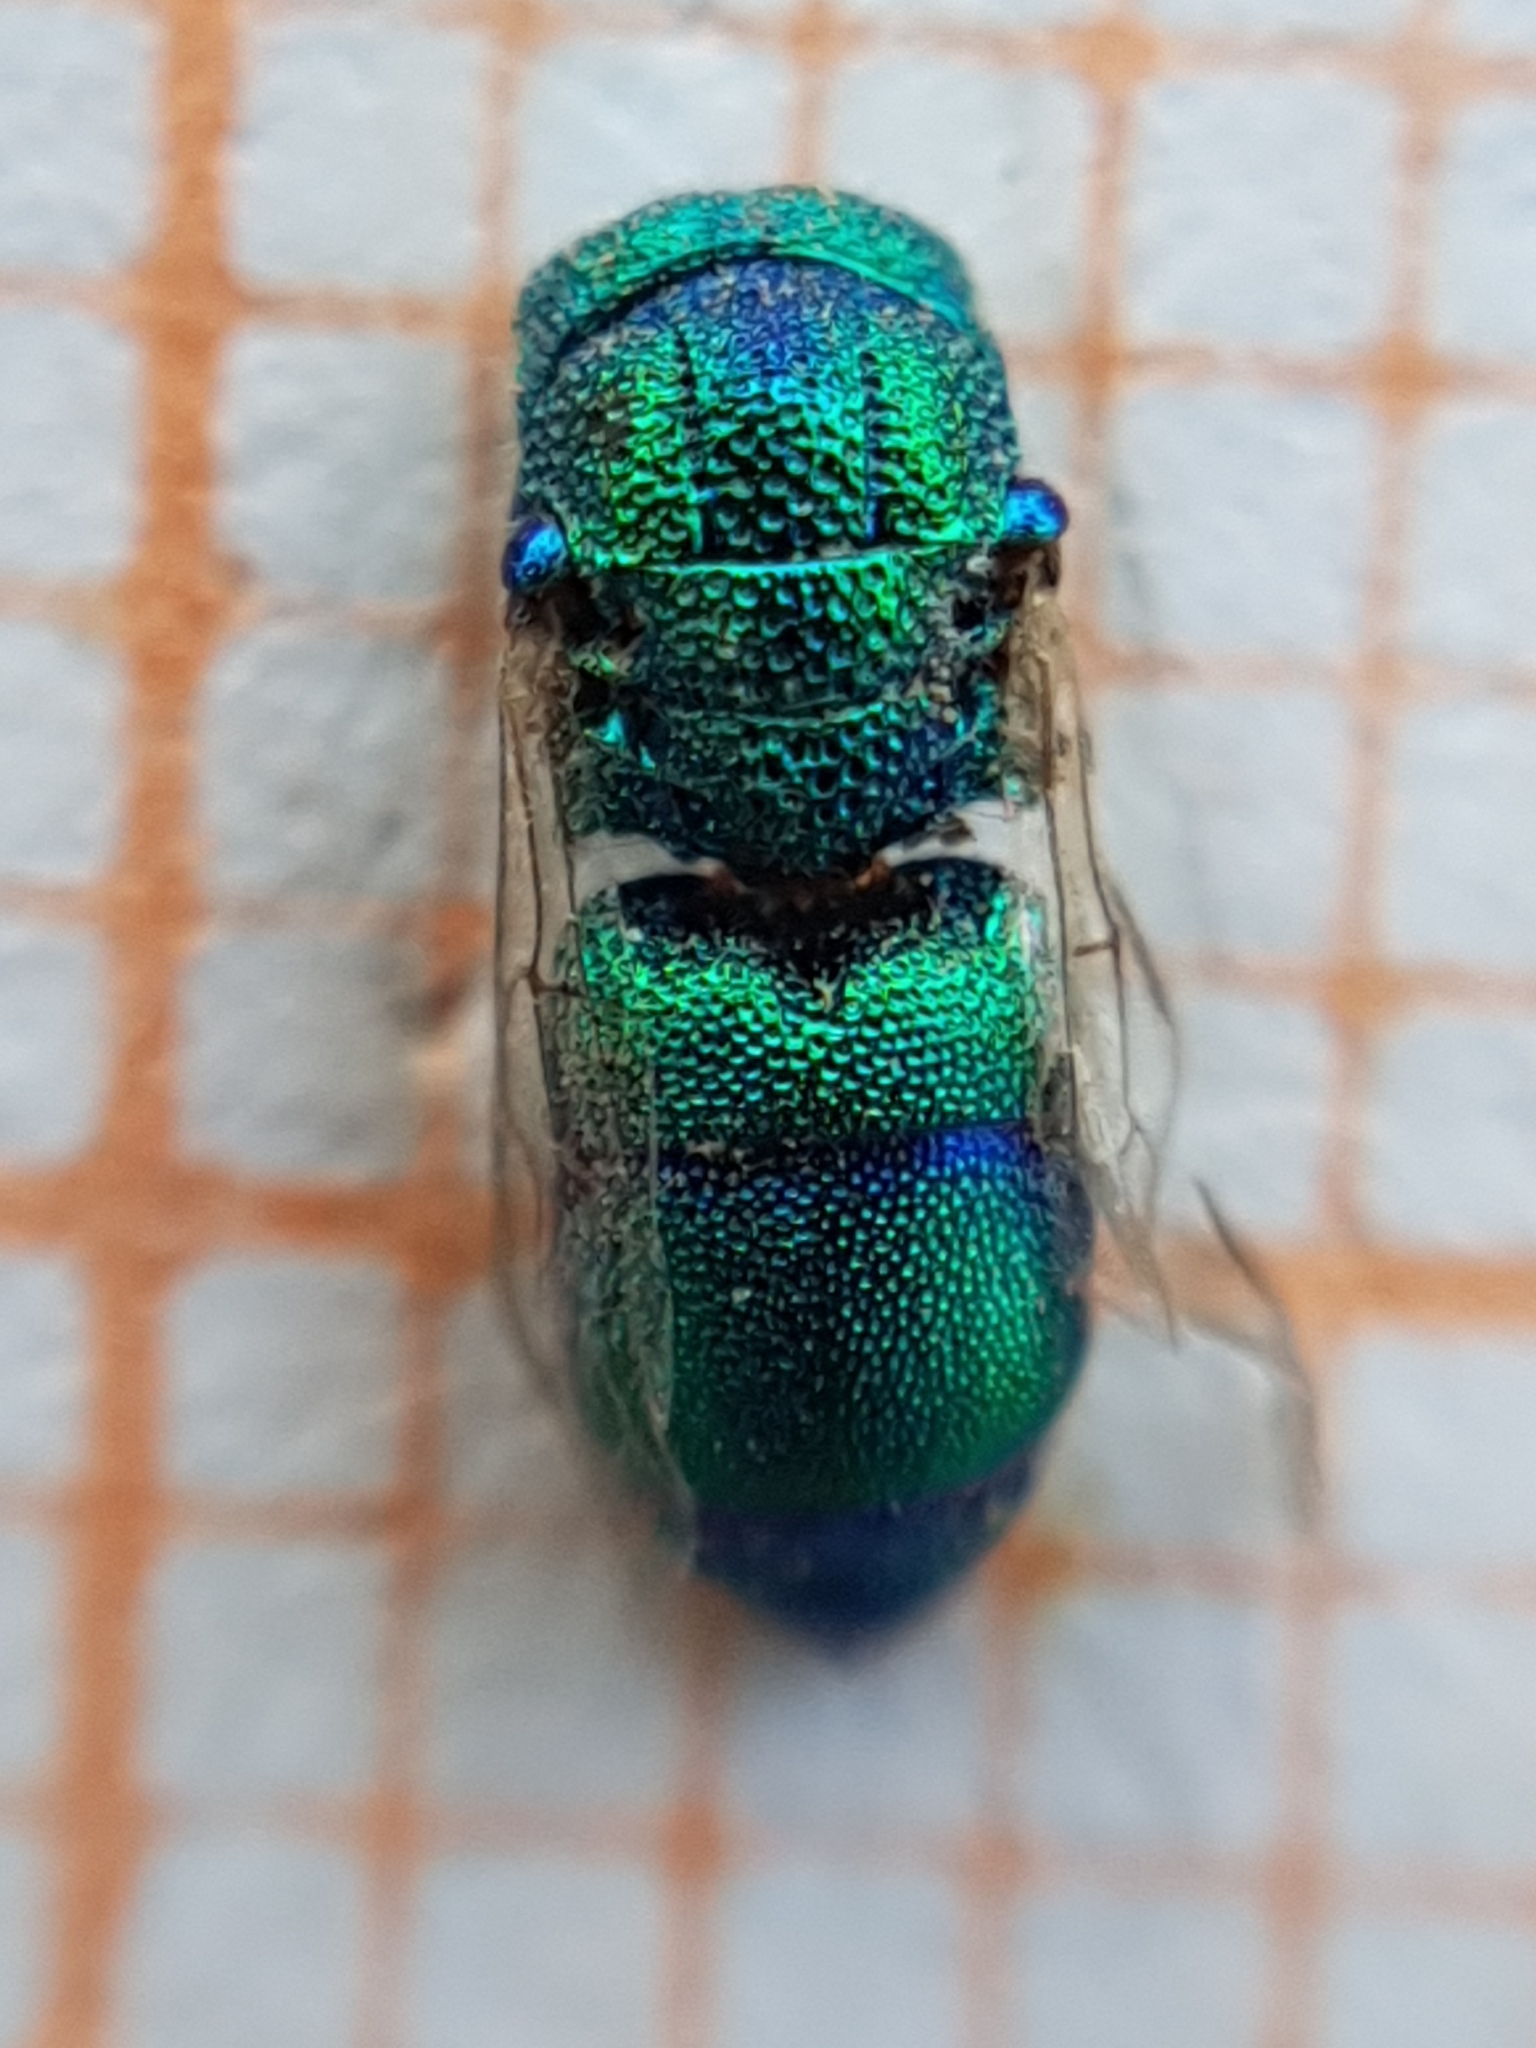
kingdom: Animalia
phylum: Arthropoda
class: Insecta
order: Hymenoptera
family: Chrysididae
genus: Trichrysis
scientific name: Trichrysis
